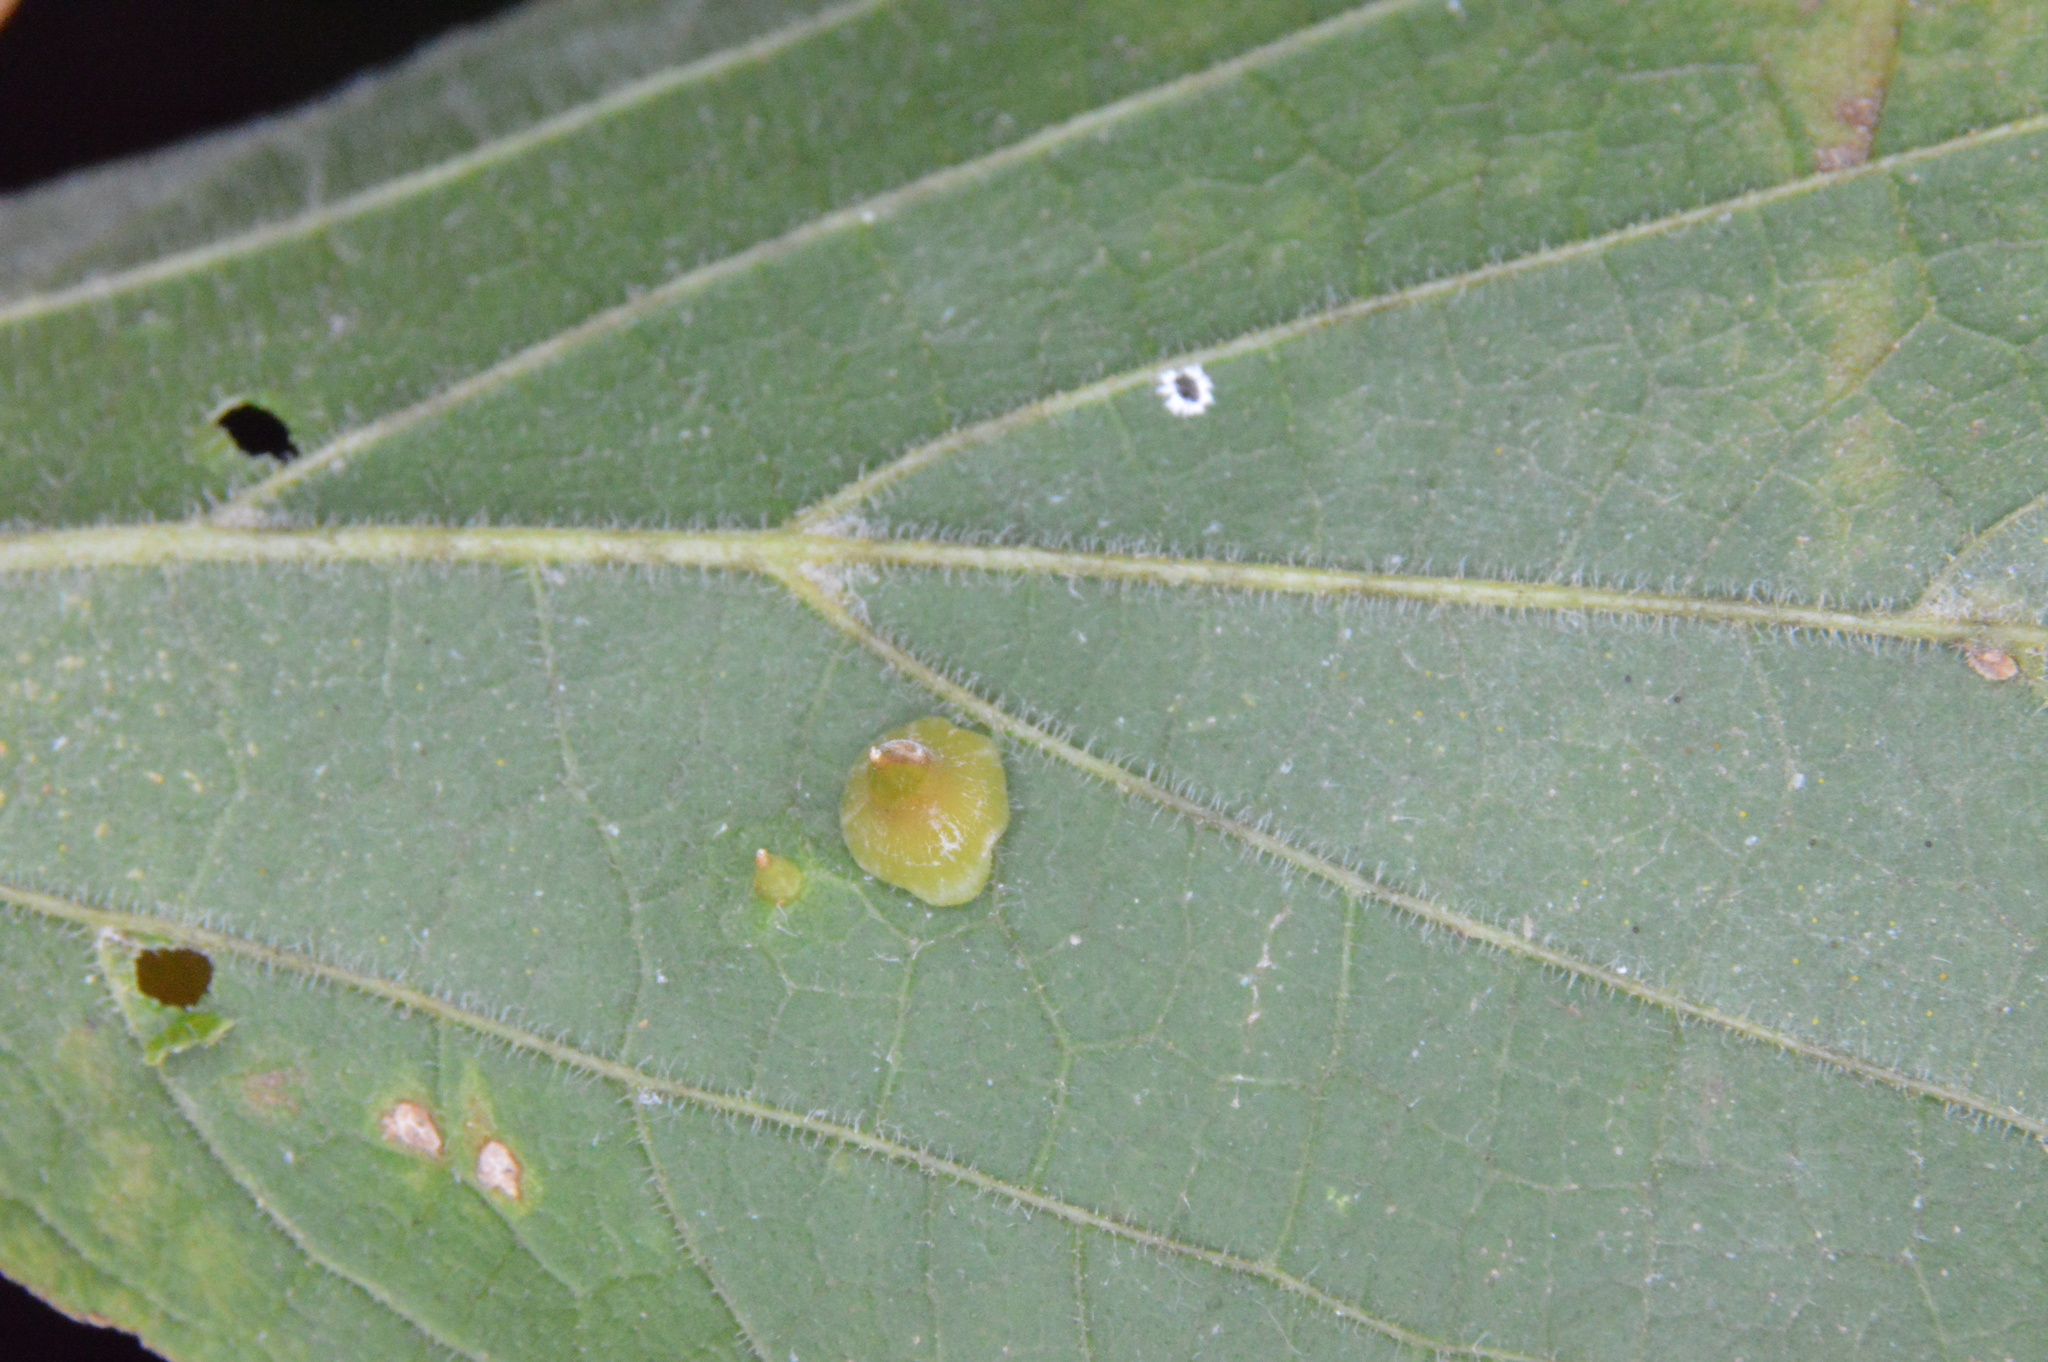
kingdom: Animalia
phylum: Arthropoda
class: Insecta
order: Diptera
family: Cecidomyiidae
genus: Celticecis
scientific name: Celticecis spiniformis
